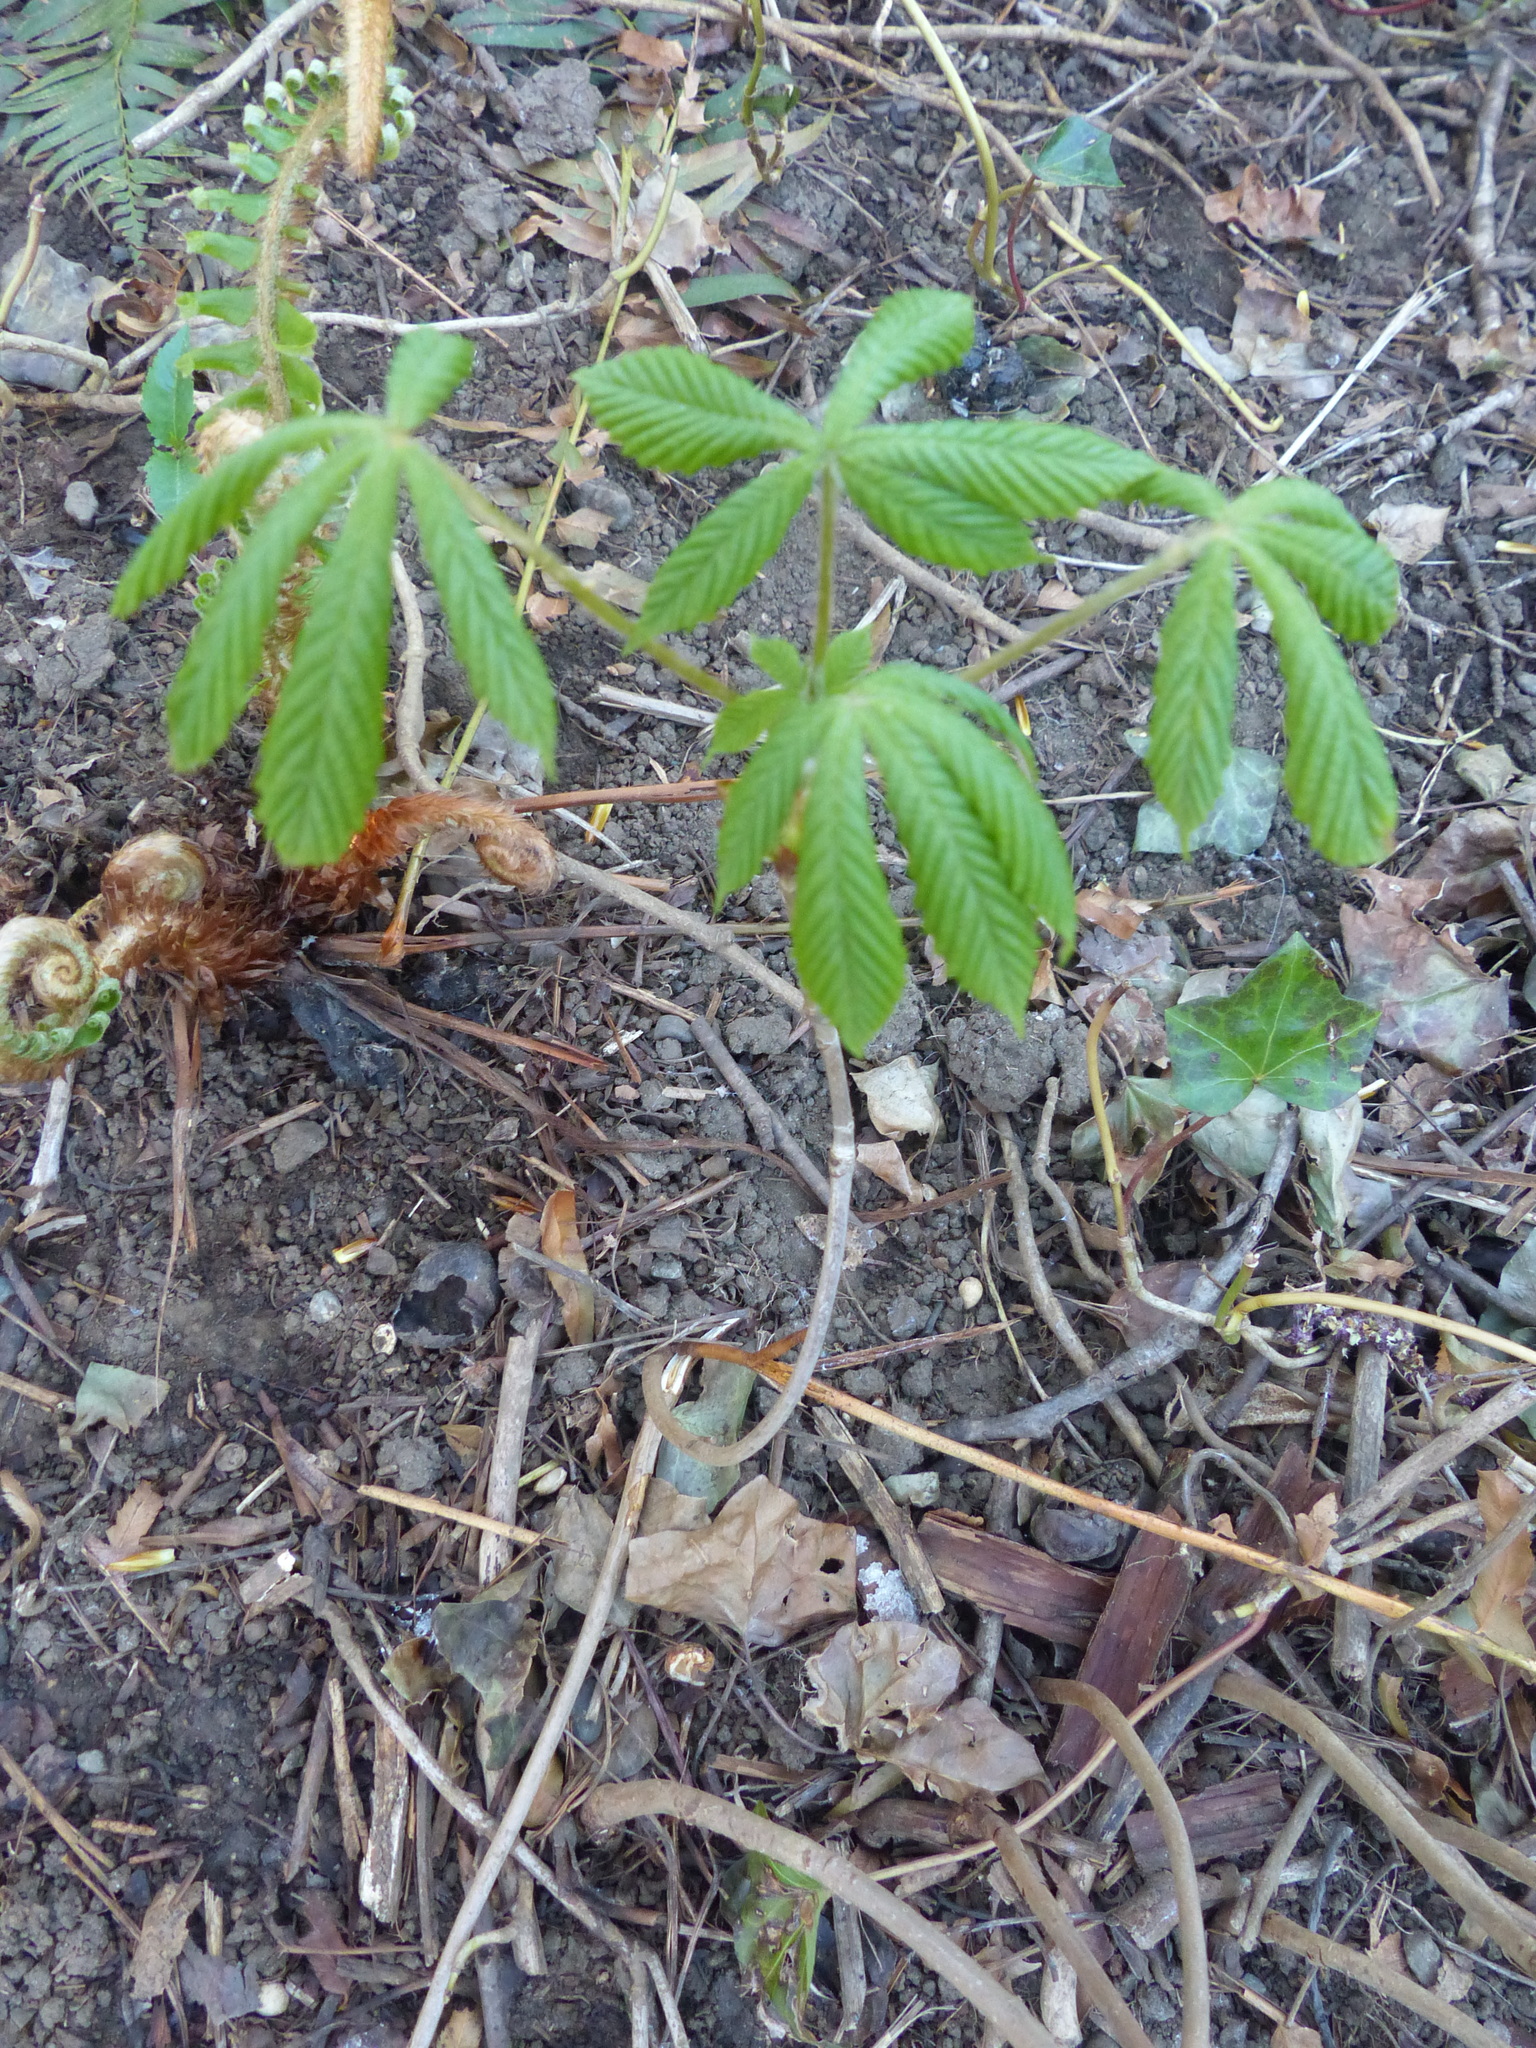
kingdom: Plantae
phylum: Tracheophyta
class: Magnoliopsida
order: Sapindales
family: Sapindaceae
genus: Aesculus
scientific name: Aesculus hippocastanum
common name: Horse-chestnut
